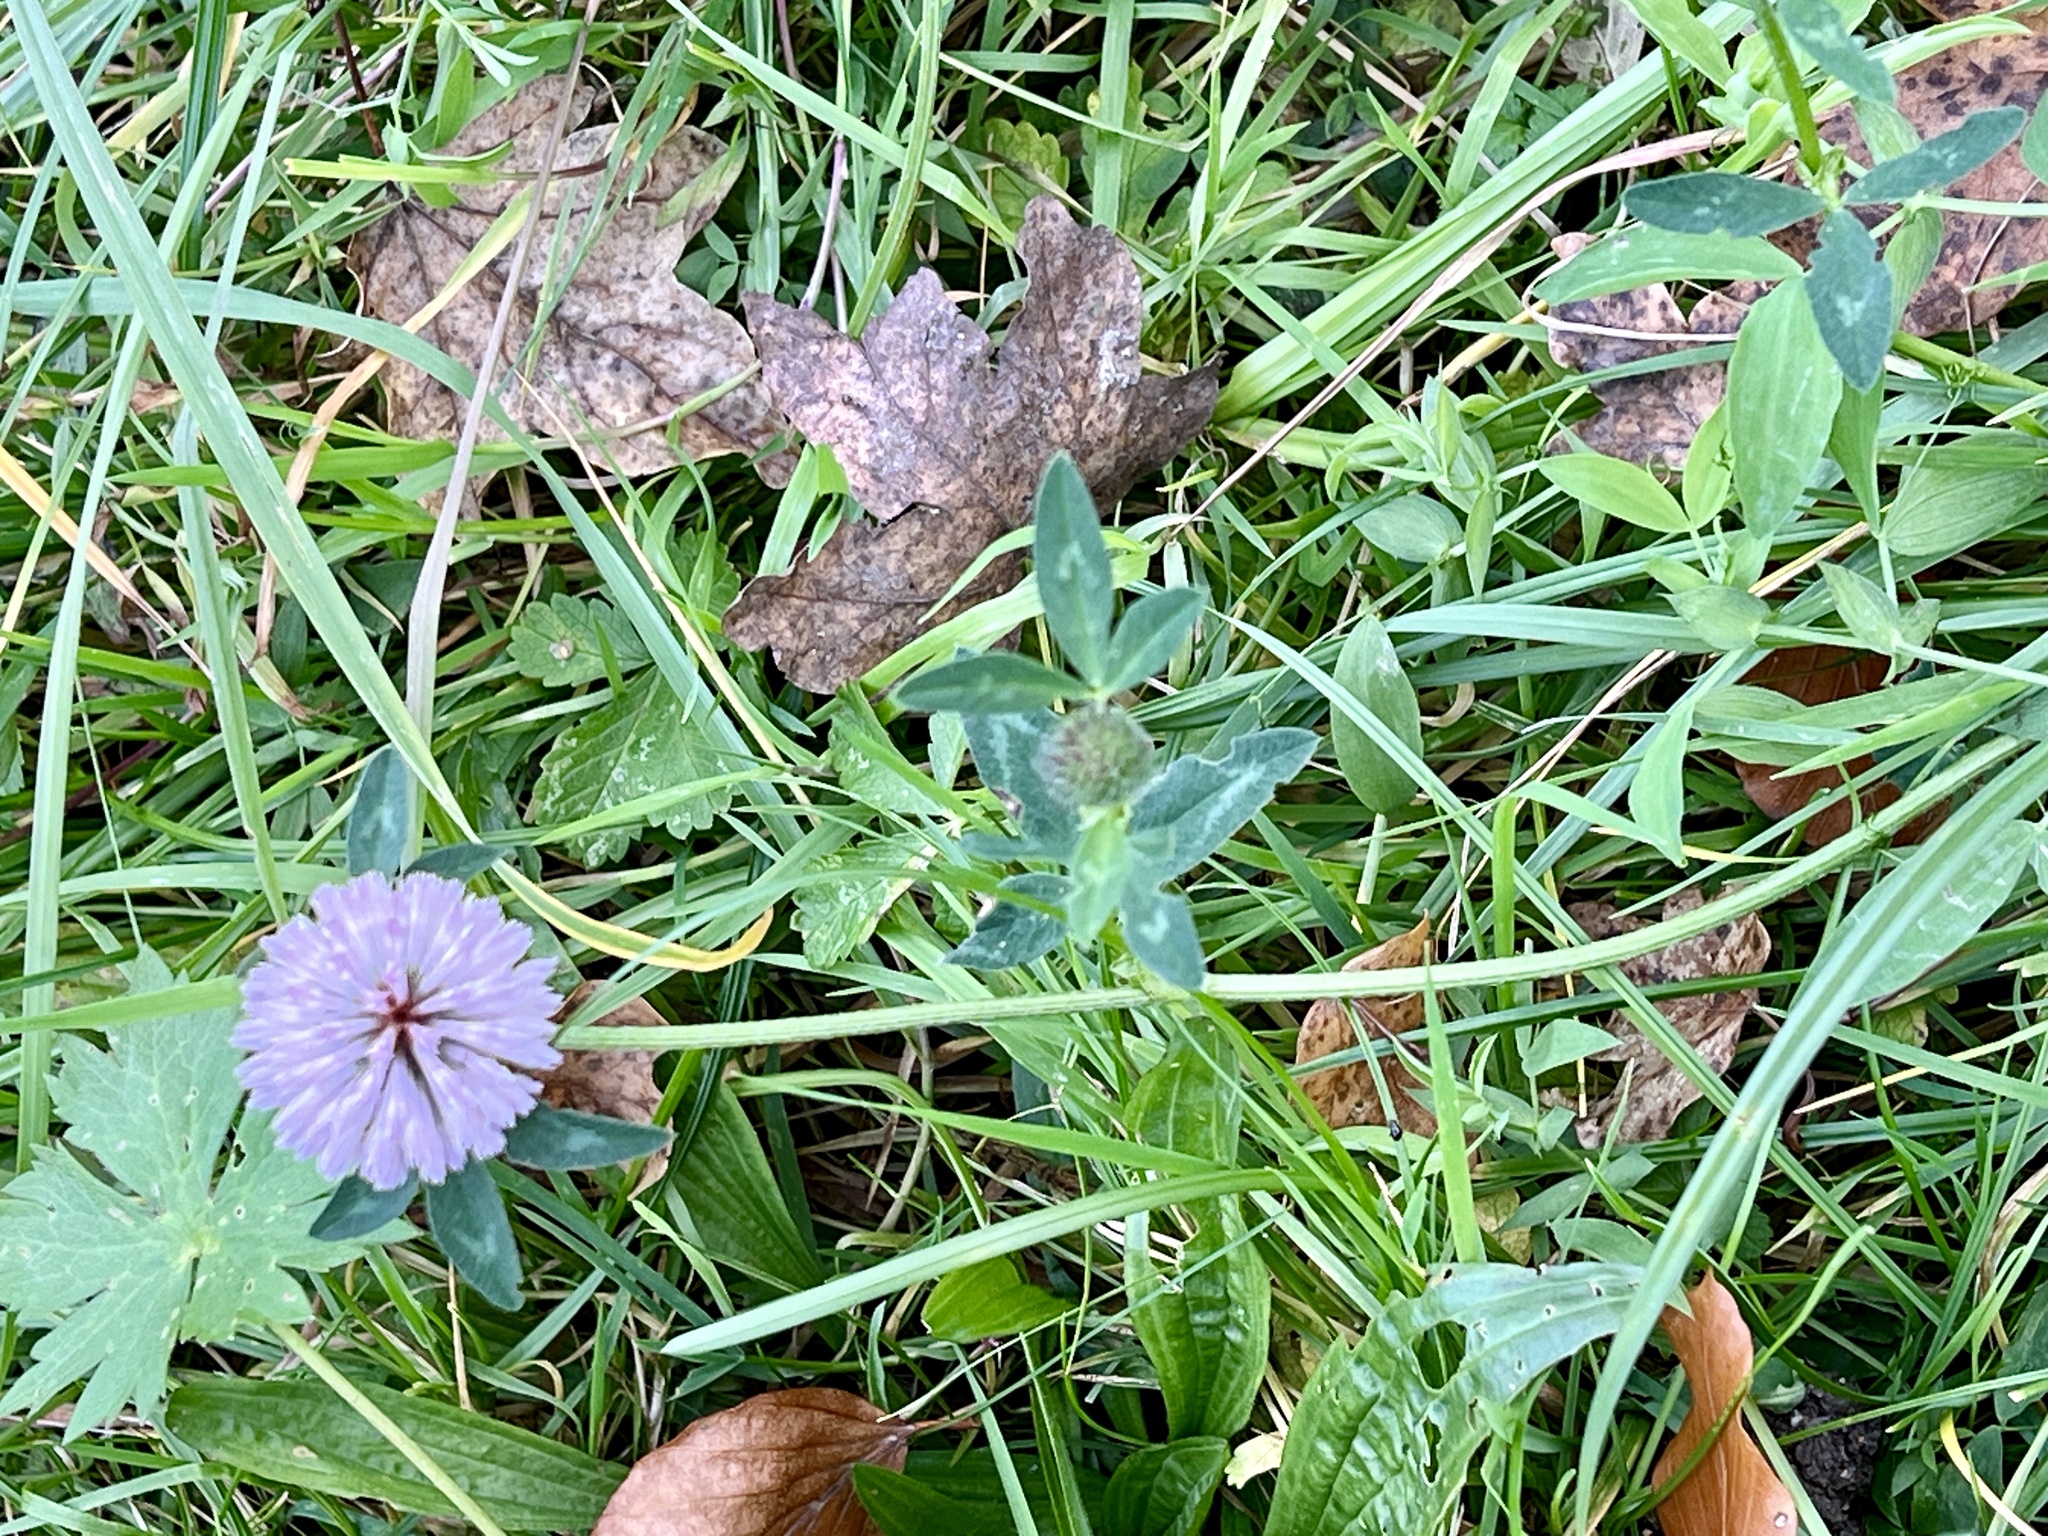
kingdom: Plantae
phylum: Tracheophyta
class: Magnoliopsida
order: Fabales
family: Fabaceae
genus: Trifolium
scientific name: Trifolium pratense
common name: Red clover
